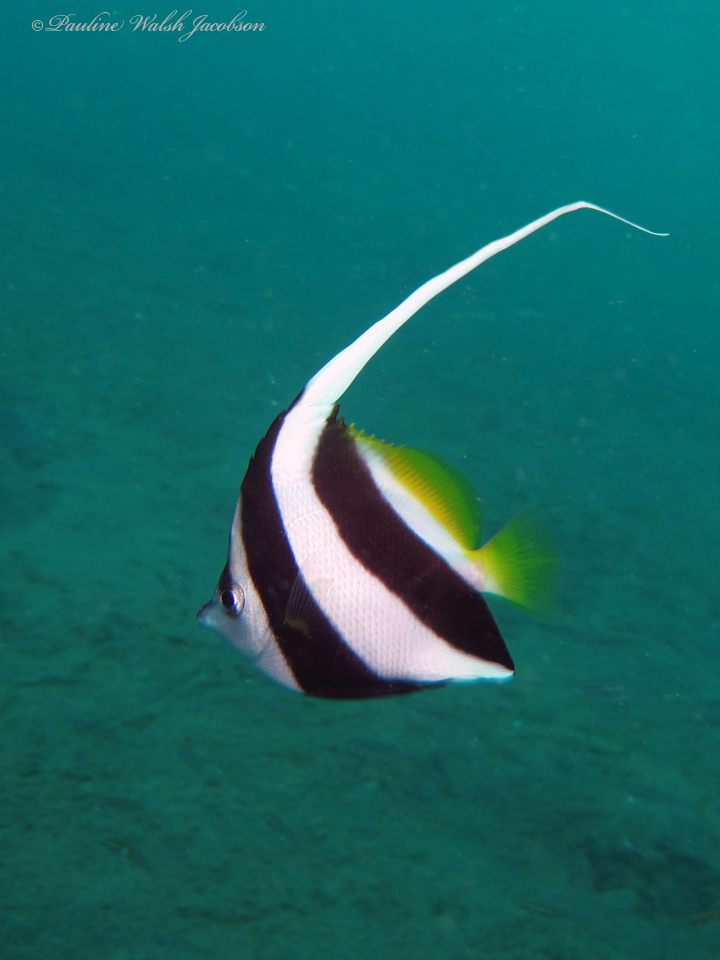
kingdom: Animalia
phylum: Chordata
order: Perciformes
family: Chaetodontidae
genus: Heniochus
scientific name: Heniochus diphreutes
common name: Pennantfish
